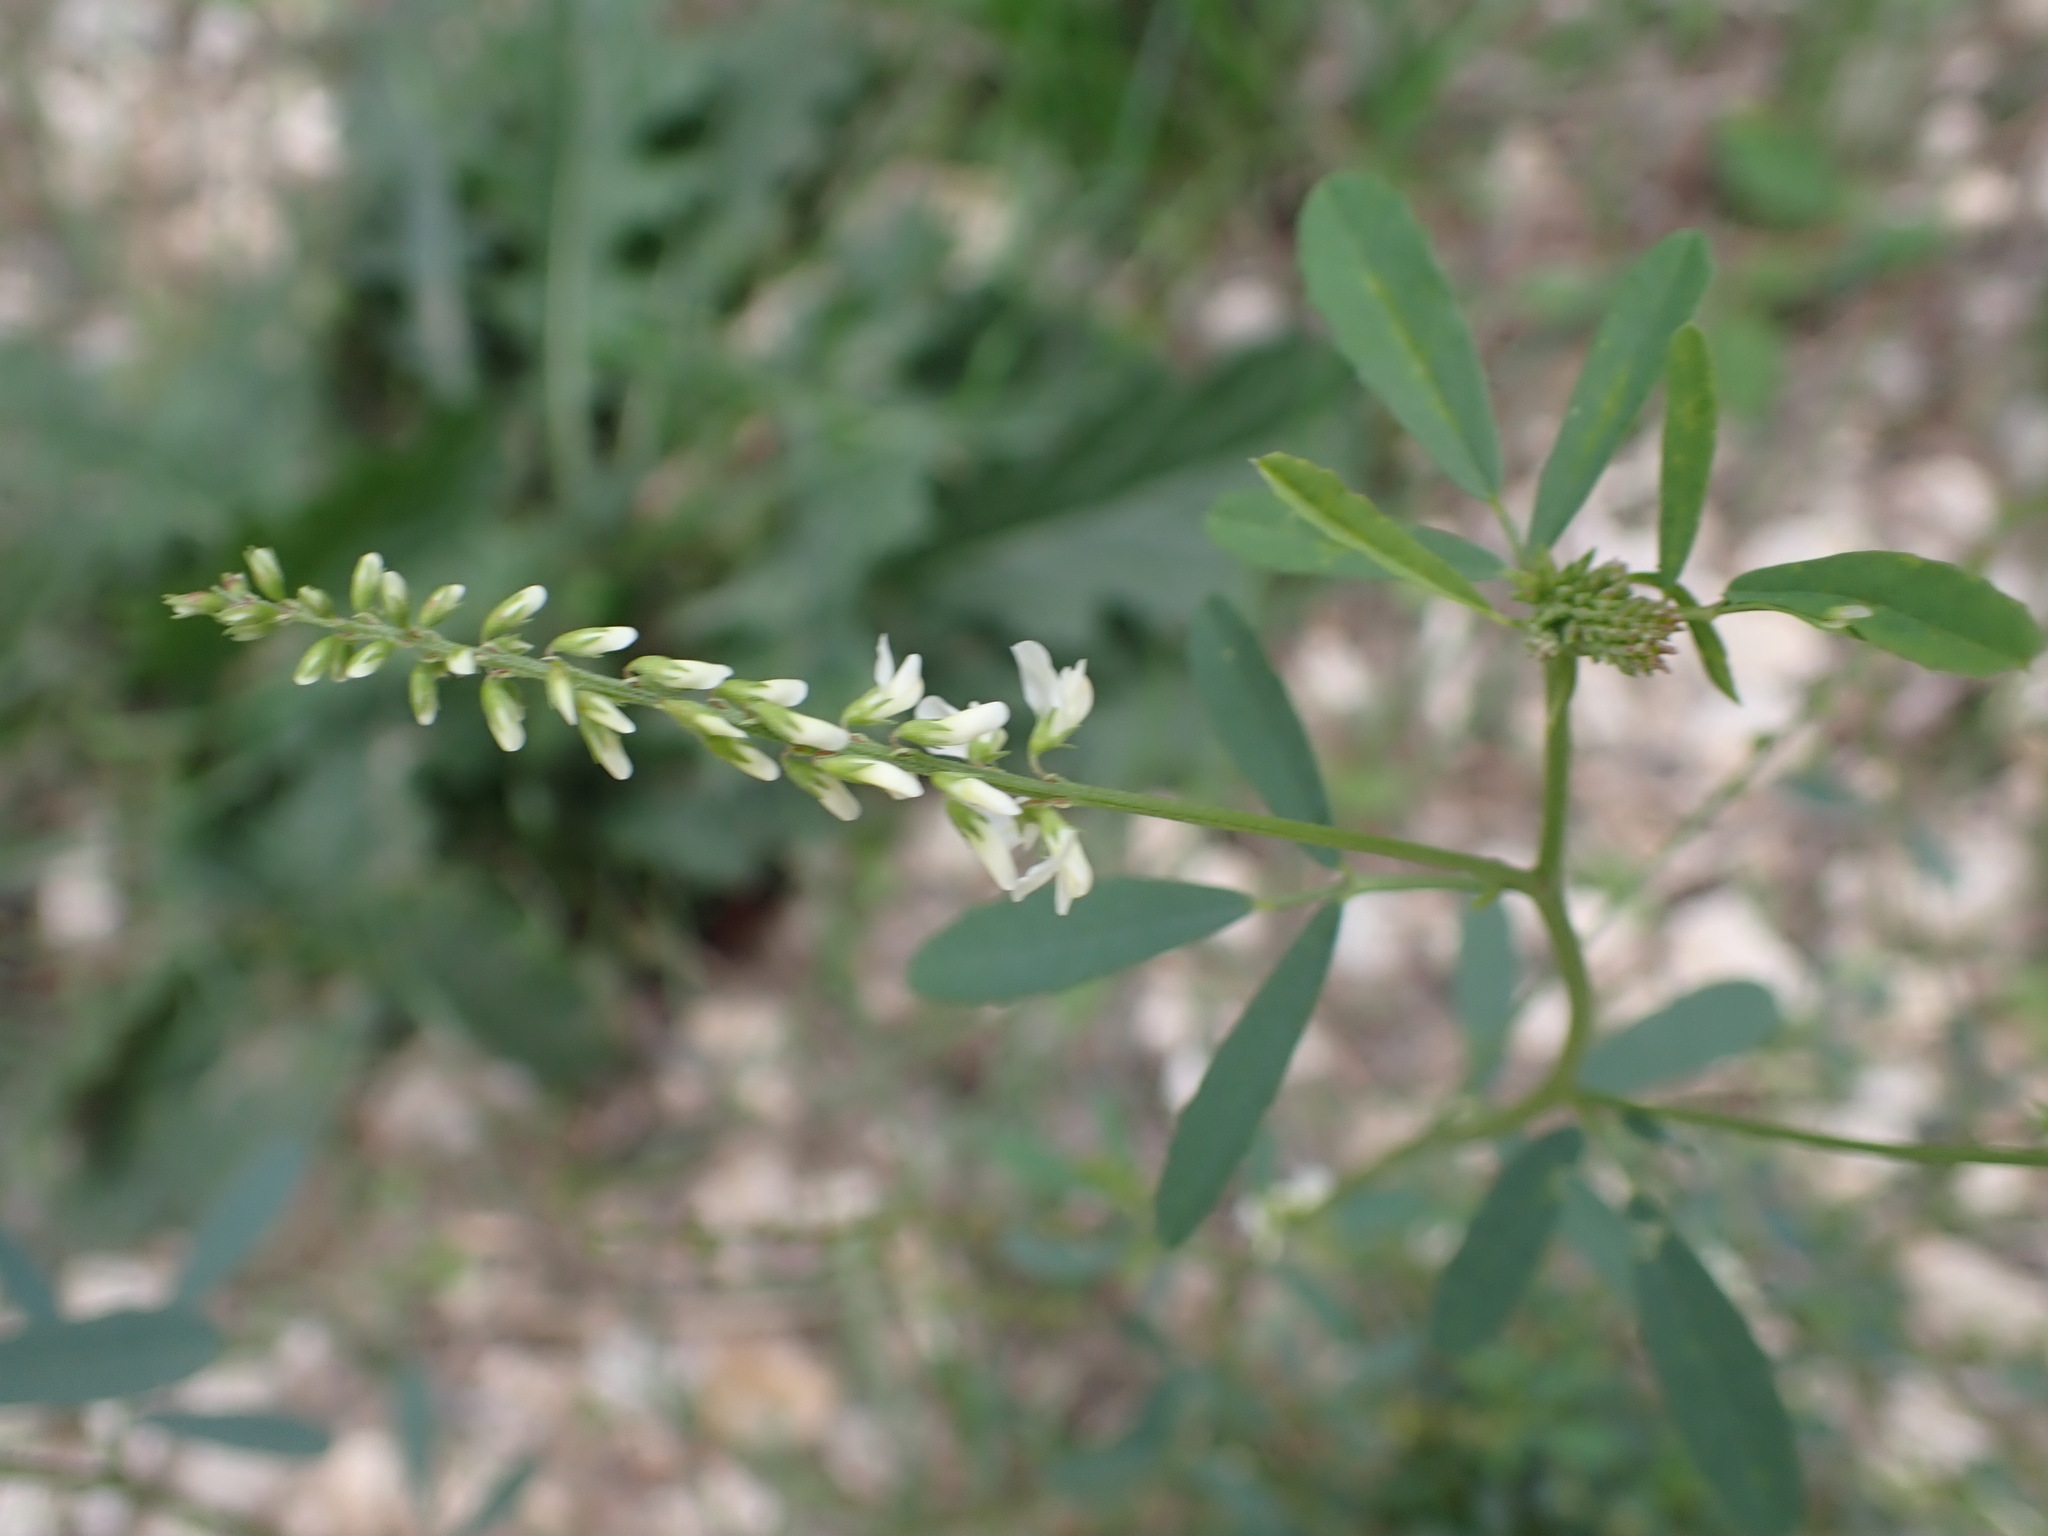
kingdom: Plantae
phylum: Tracheophyta
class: Magnoliopsida
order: Fabales
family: Fabaceae
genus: Melilotus
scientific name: Melilotus albus
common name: White melilot
